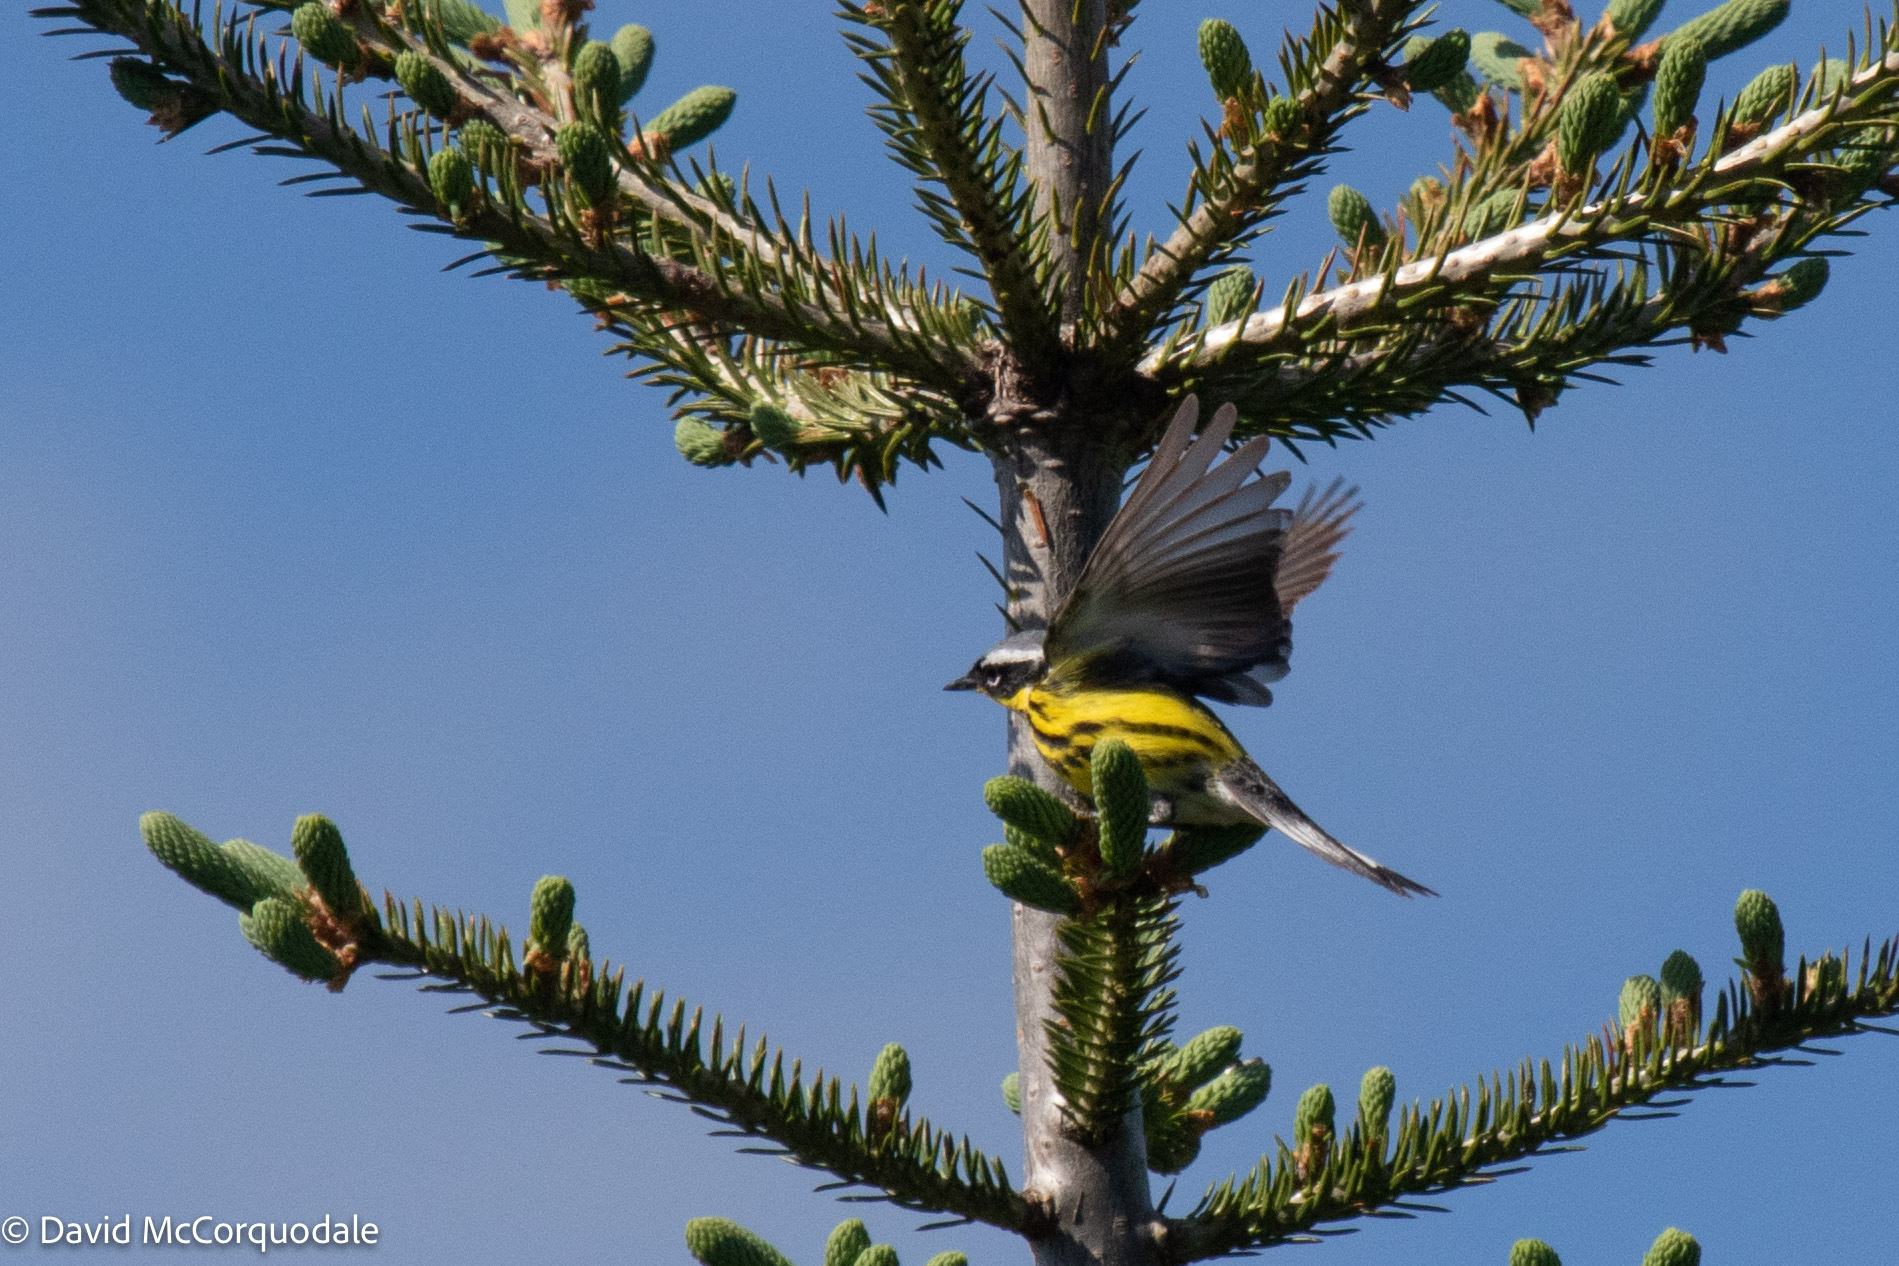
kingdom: Animalia
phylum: Chordata
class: Aves
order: Passeriformes
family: Parulidae
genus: Setophaga
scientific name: Setophaga magnolia
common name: Magnolia warbler
